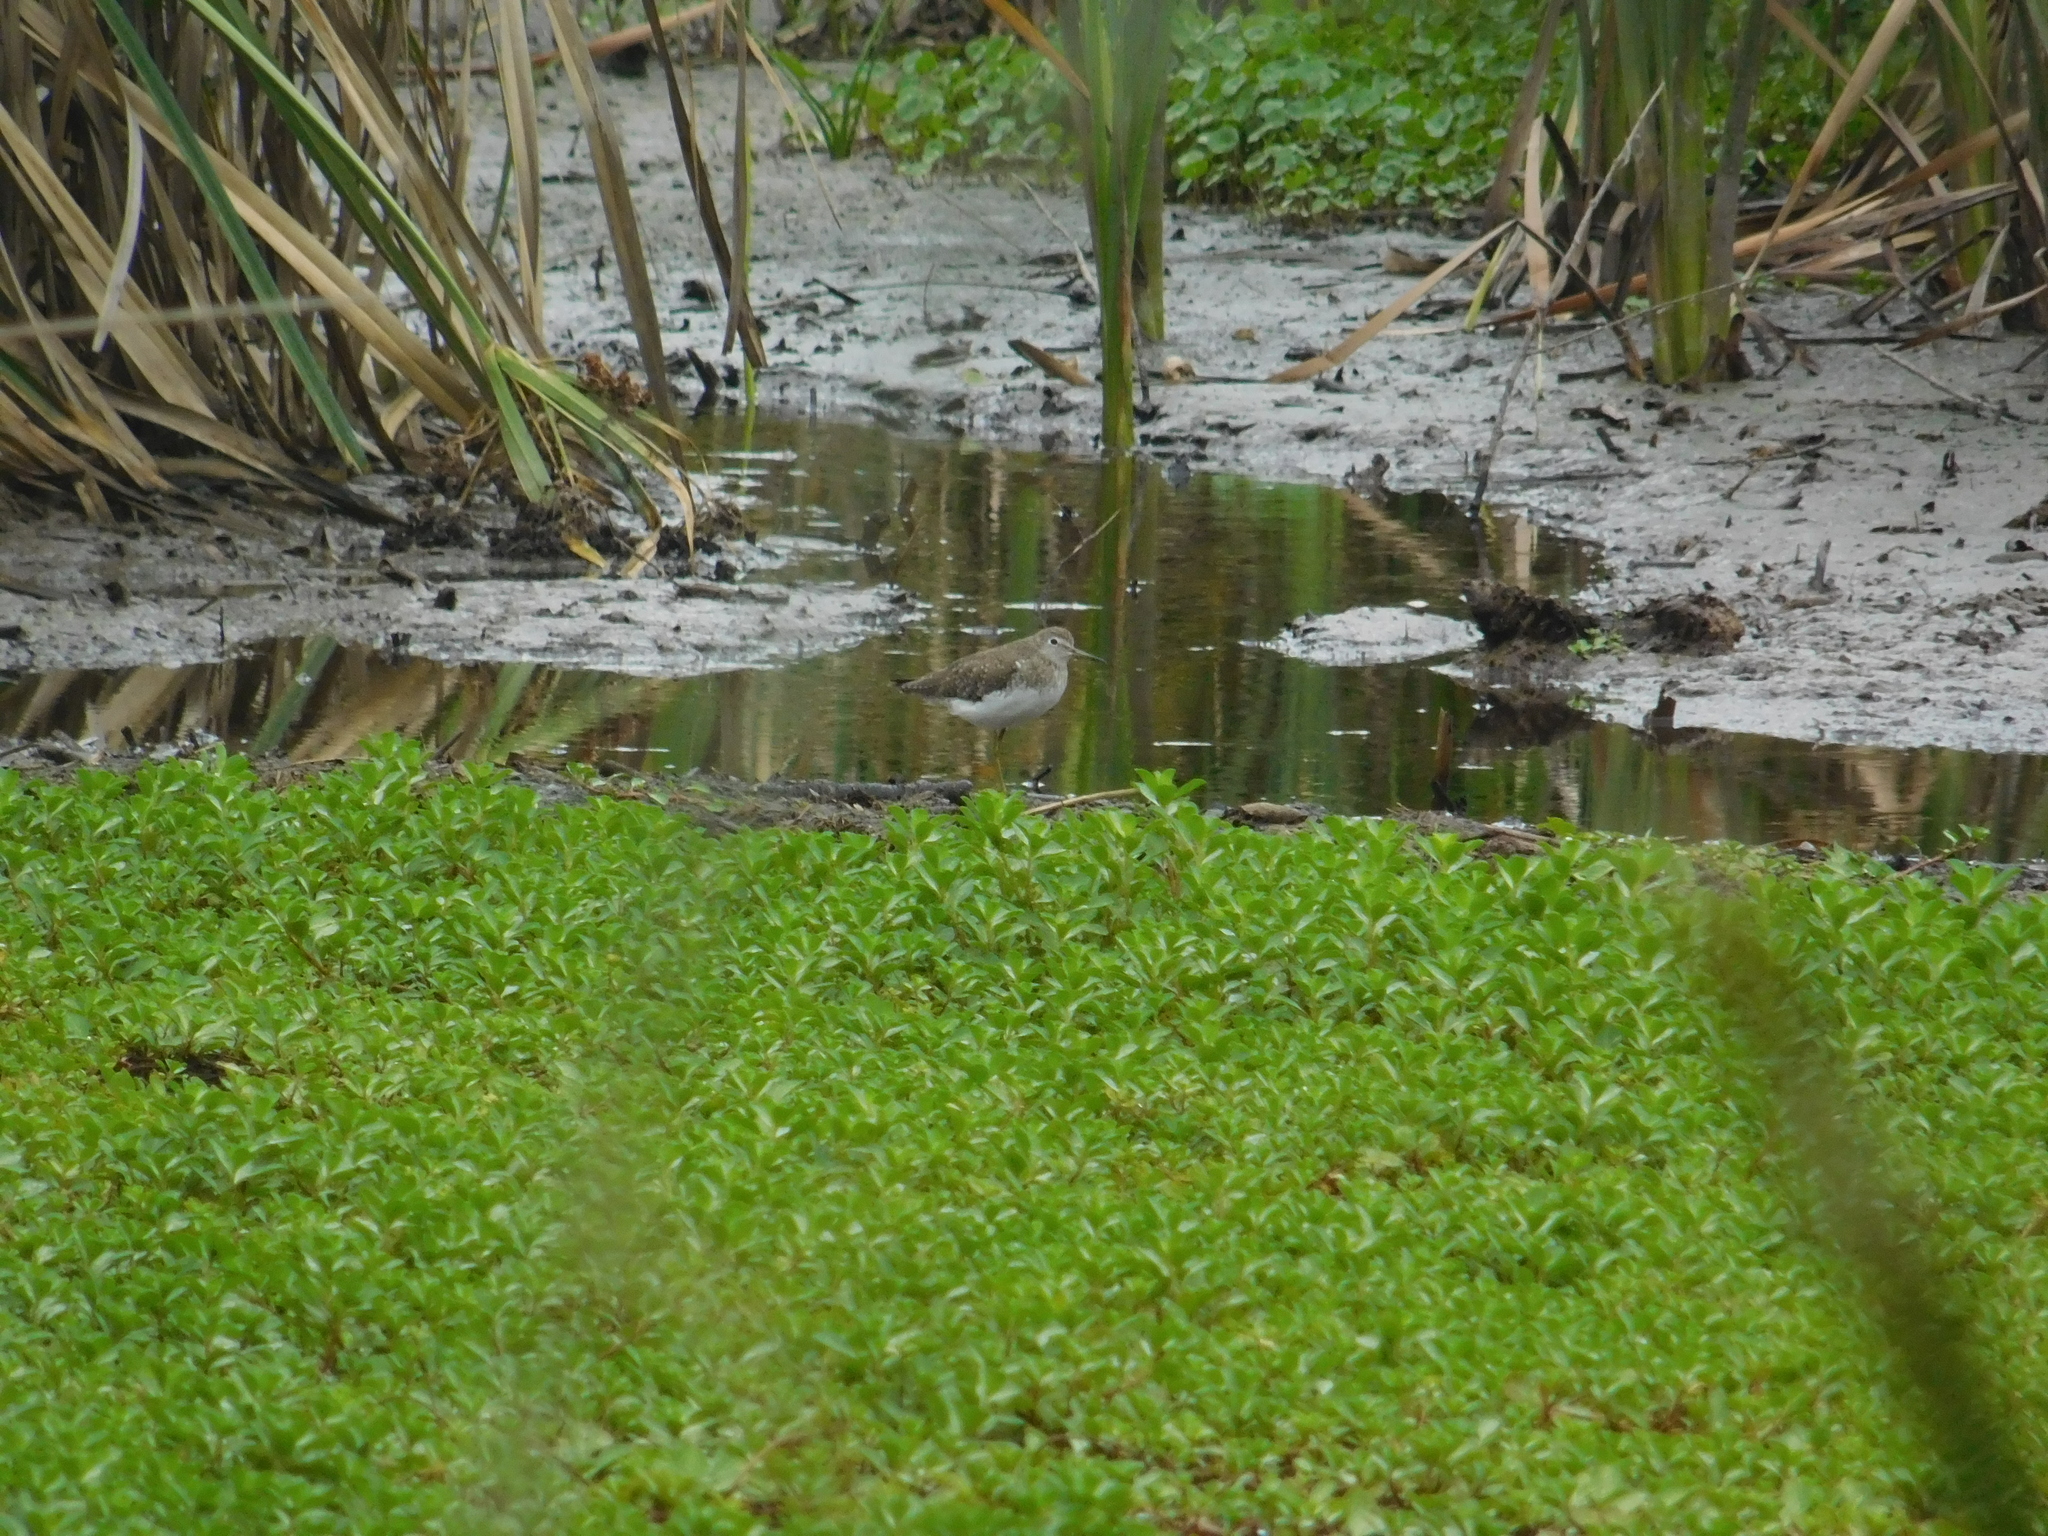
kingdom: Animalia
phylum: Chordata
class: Aves
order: Charadriiformes
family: Scolopacidae
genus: Tringa
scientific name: Tringa solitaria
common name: Solitary sandpiper
